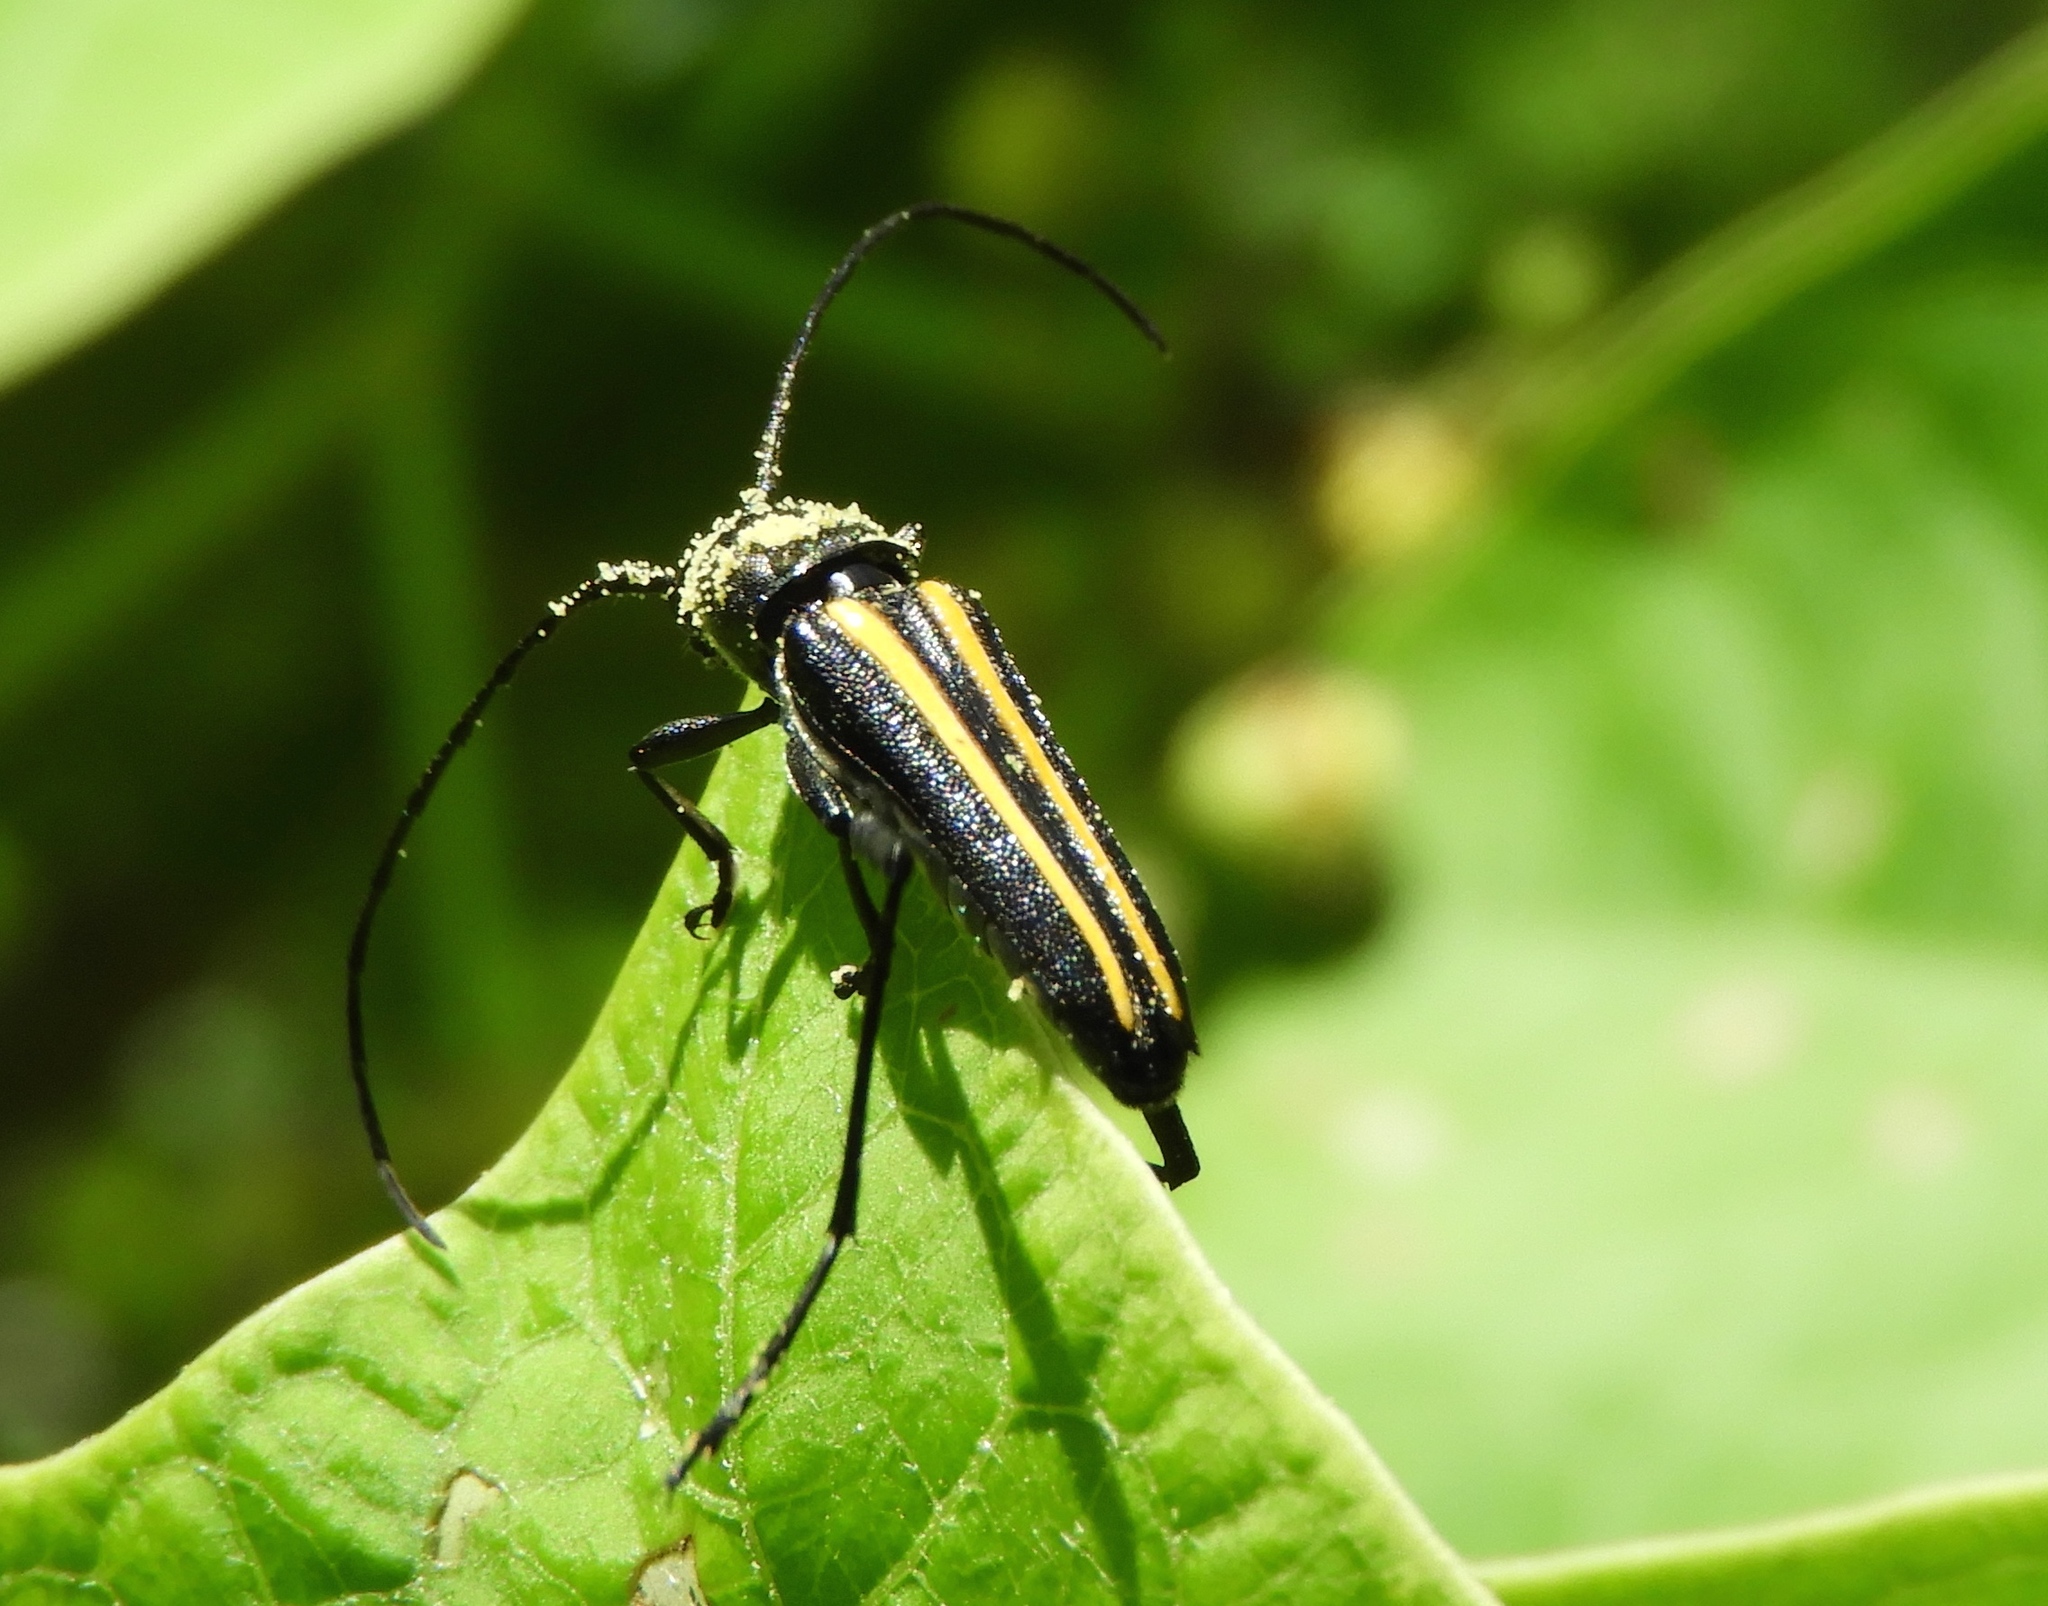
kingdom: Animalia
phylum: Arthropoda
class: Insecta
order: Coleoptera
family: Cerambycidae
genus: Lophalia
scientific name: Lophalia prolata
